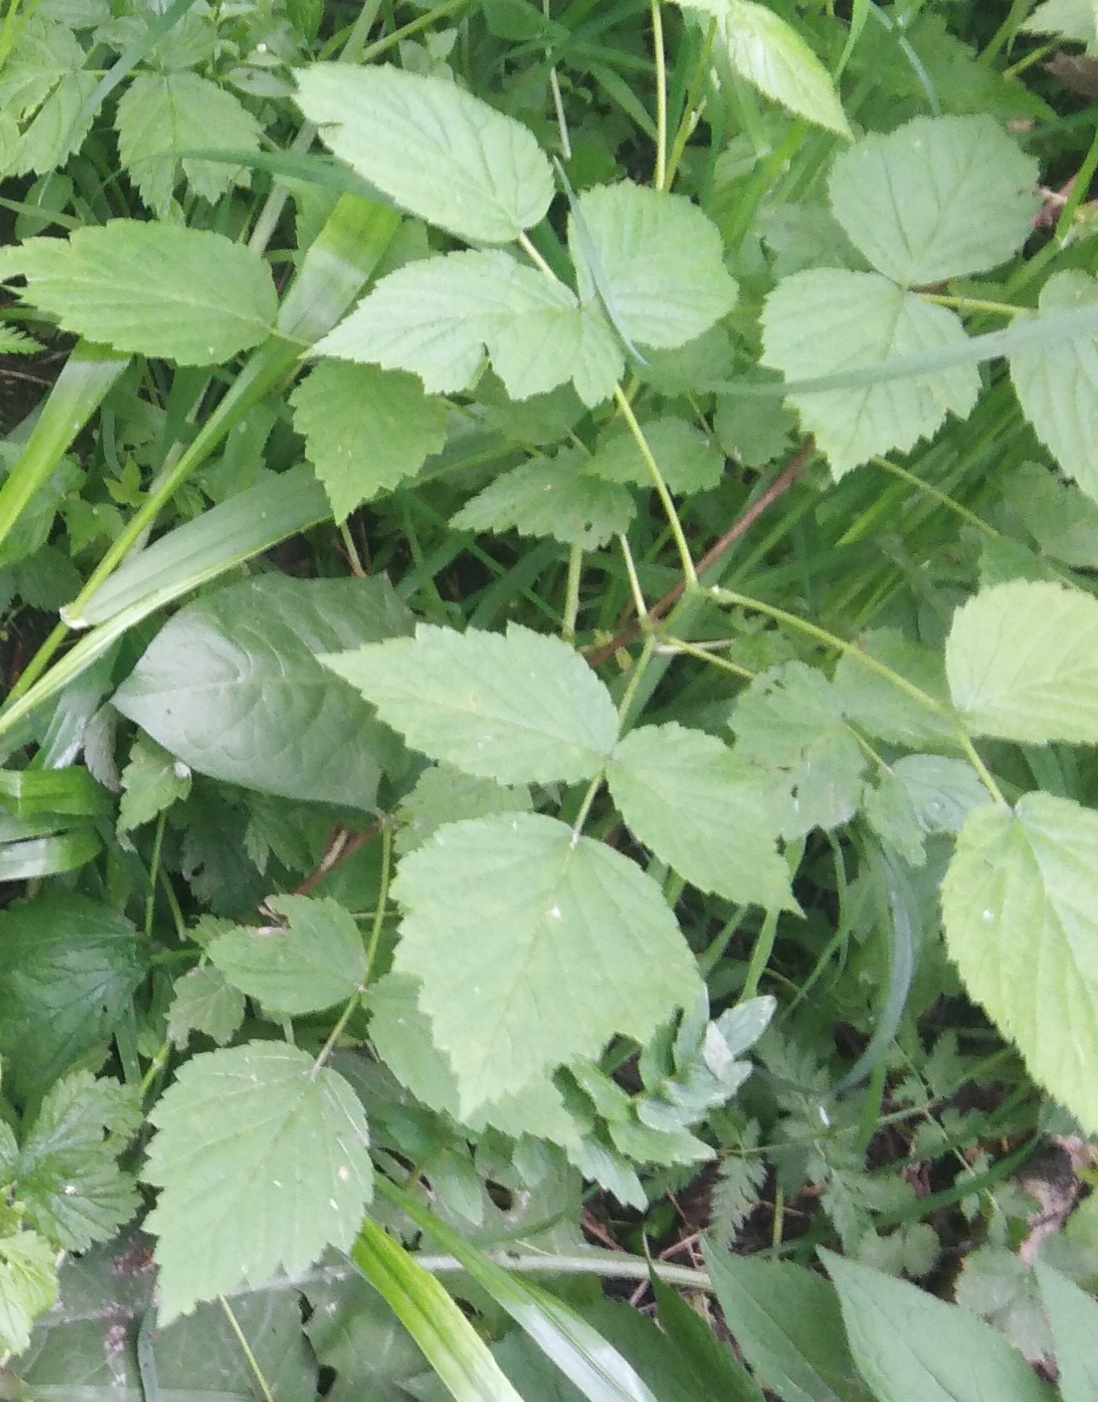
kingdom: Plantae
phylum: Tracheophyta
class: Magnoliopsida
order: Rosales
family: Rosaceae
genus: Rubus
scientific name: Rubus caesius
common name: Dewberry
